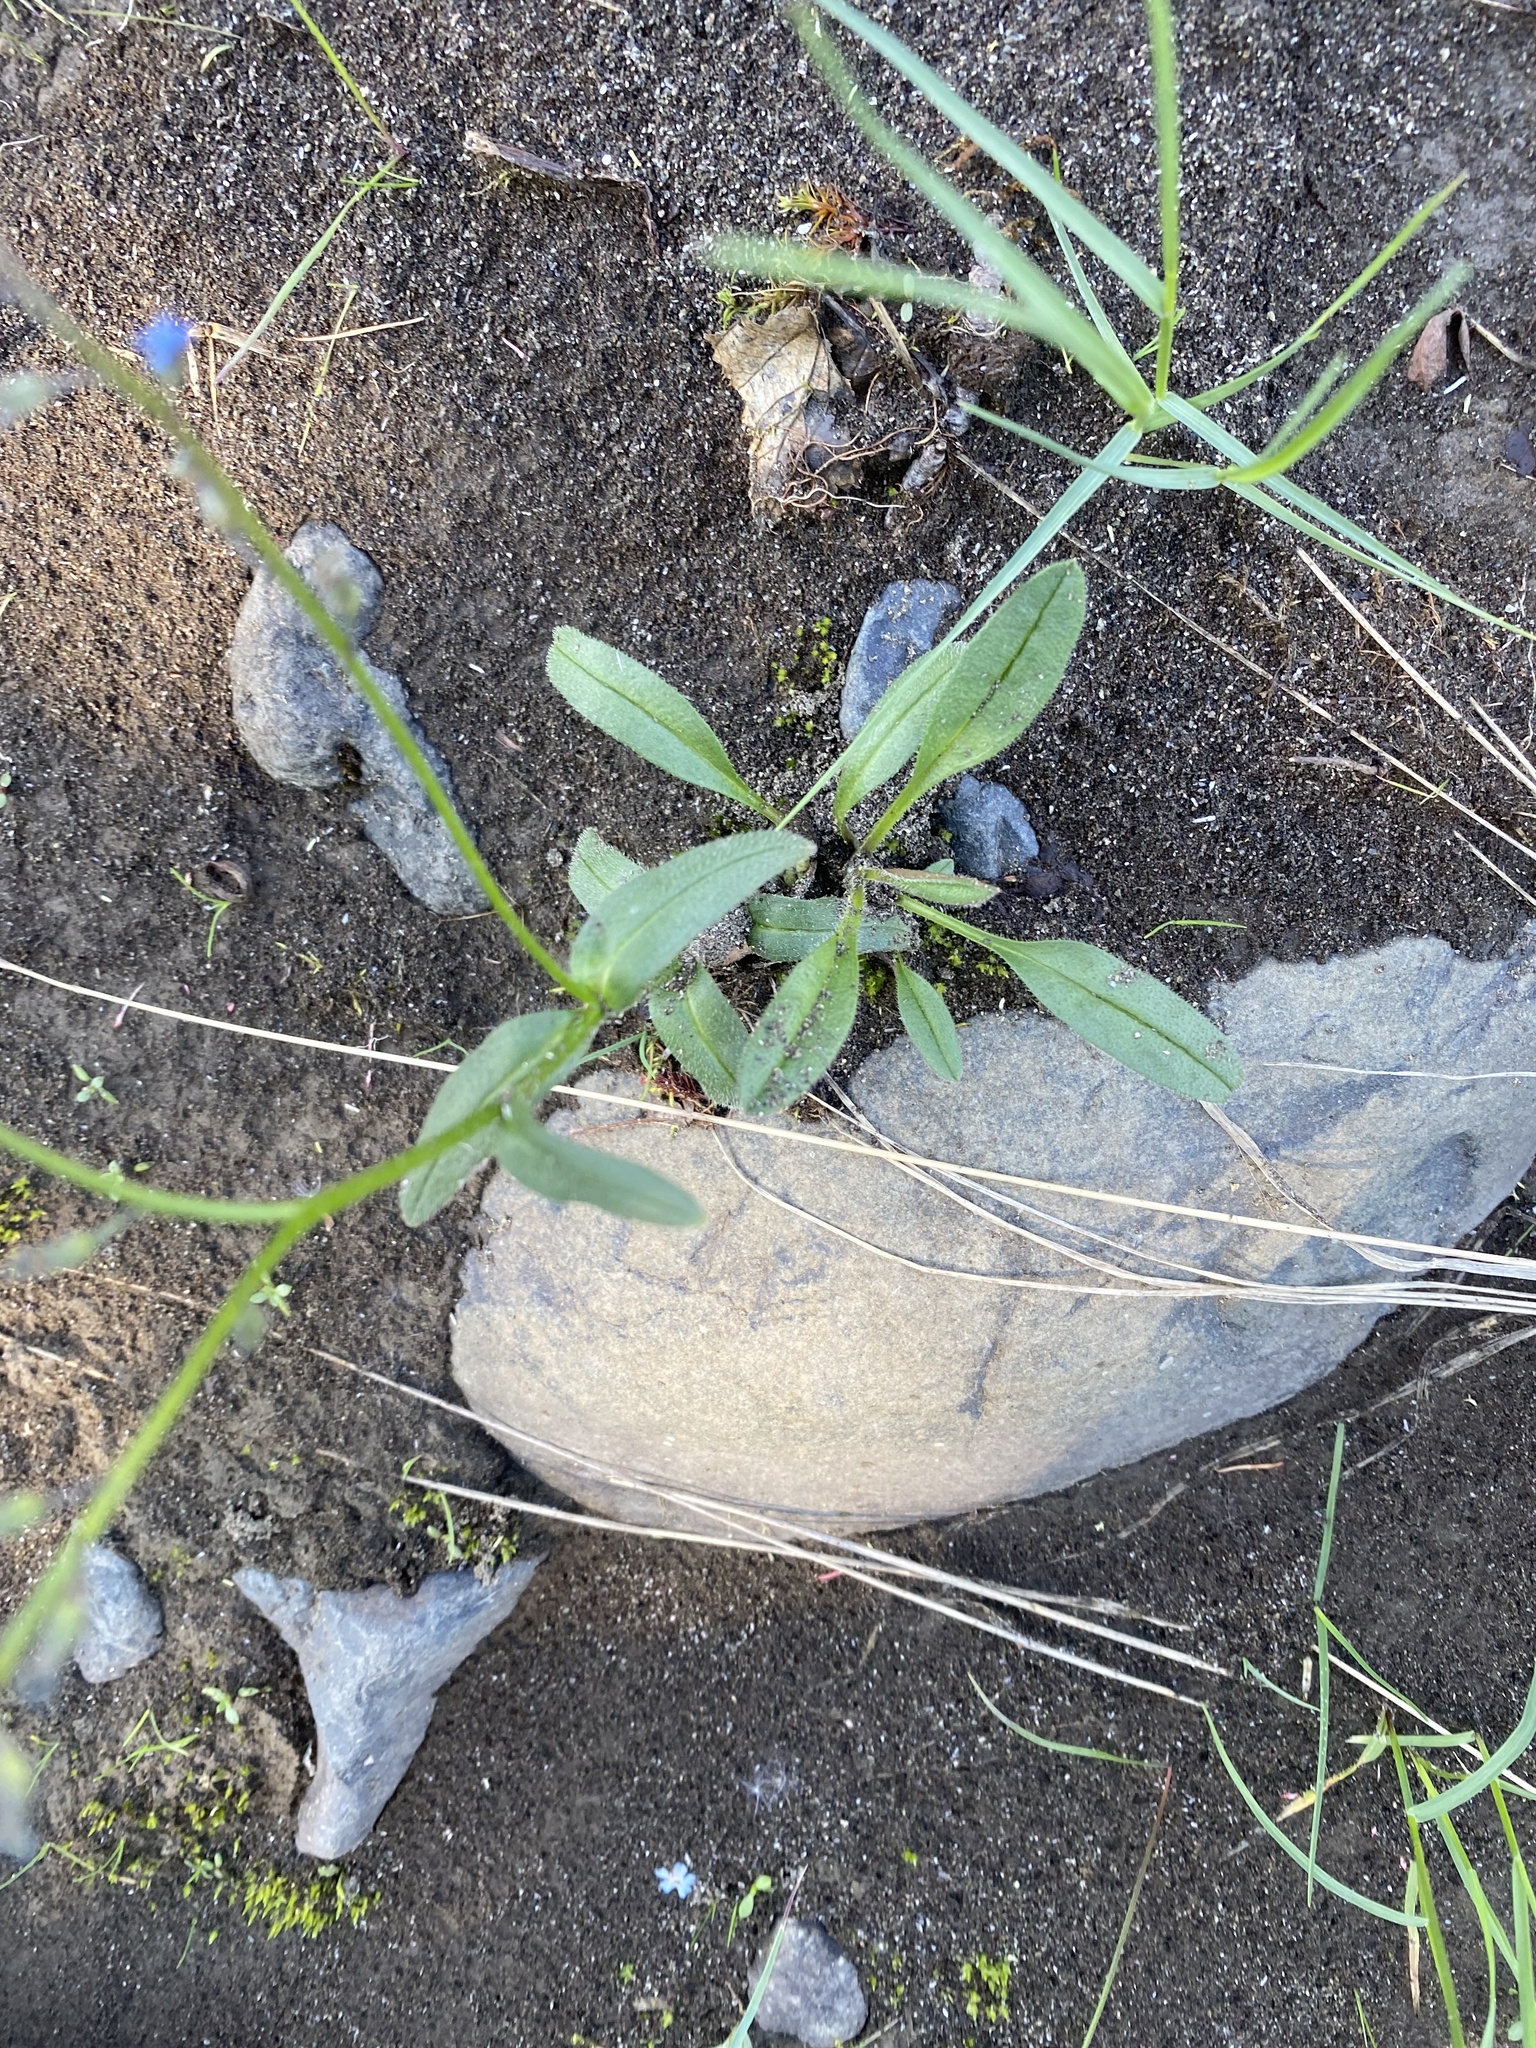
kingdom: Plantae
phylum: Tracheophyta
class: Magnoliopsida
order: Boraginales
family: Boraginaceae
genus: Myosotis
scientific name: Myosotis asiatica
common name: Asian forget-me-not
